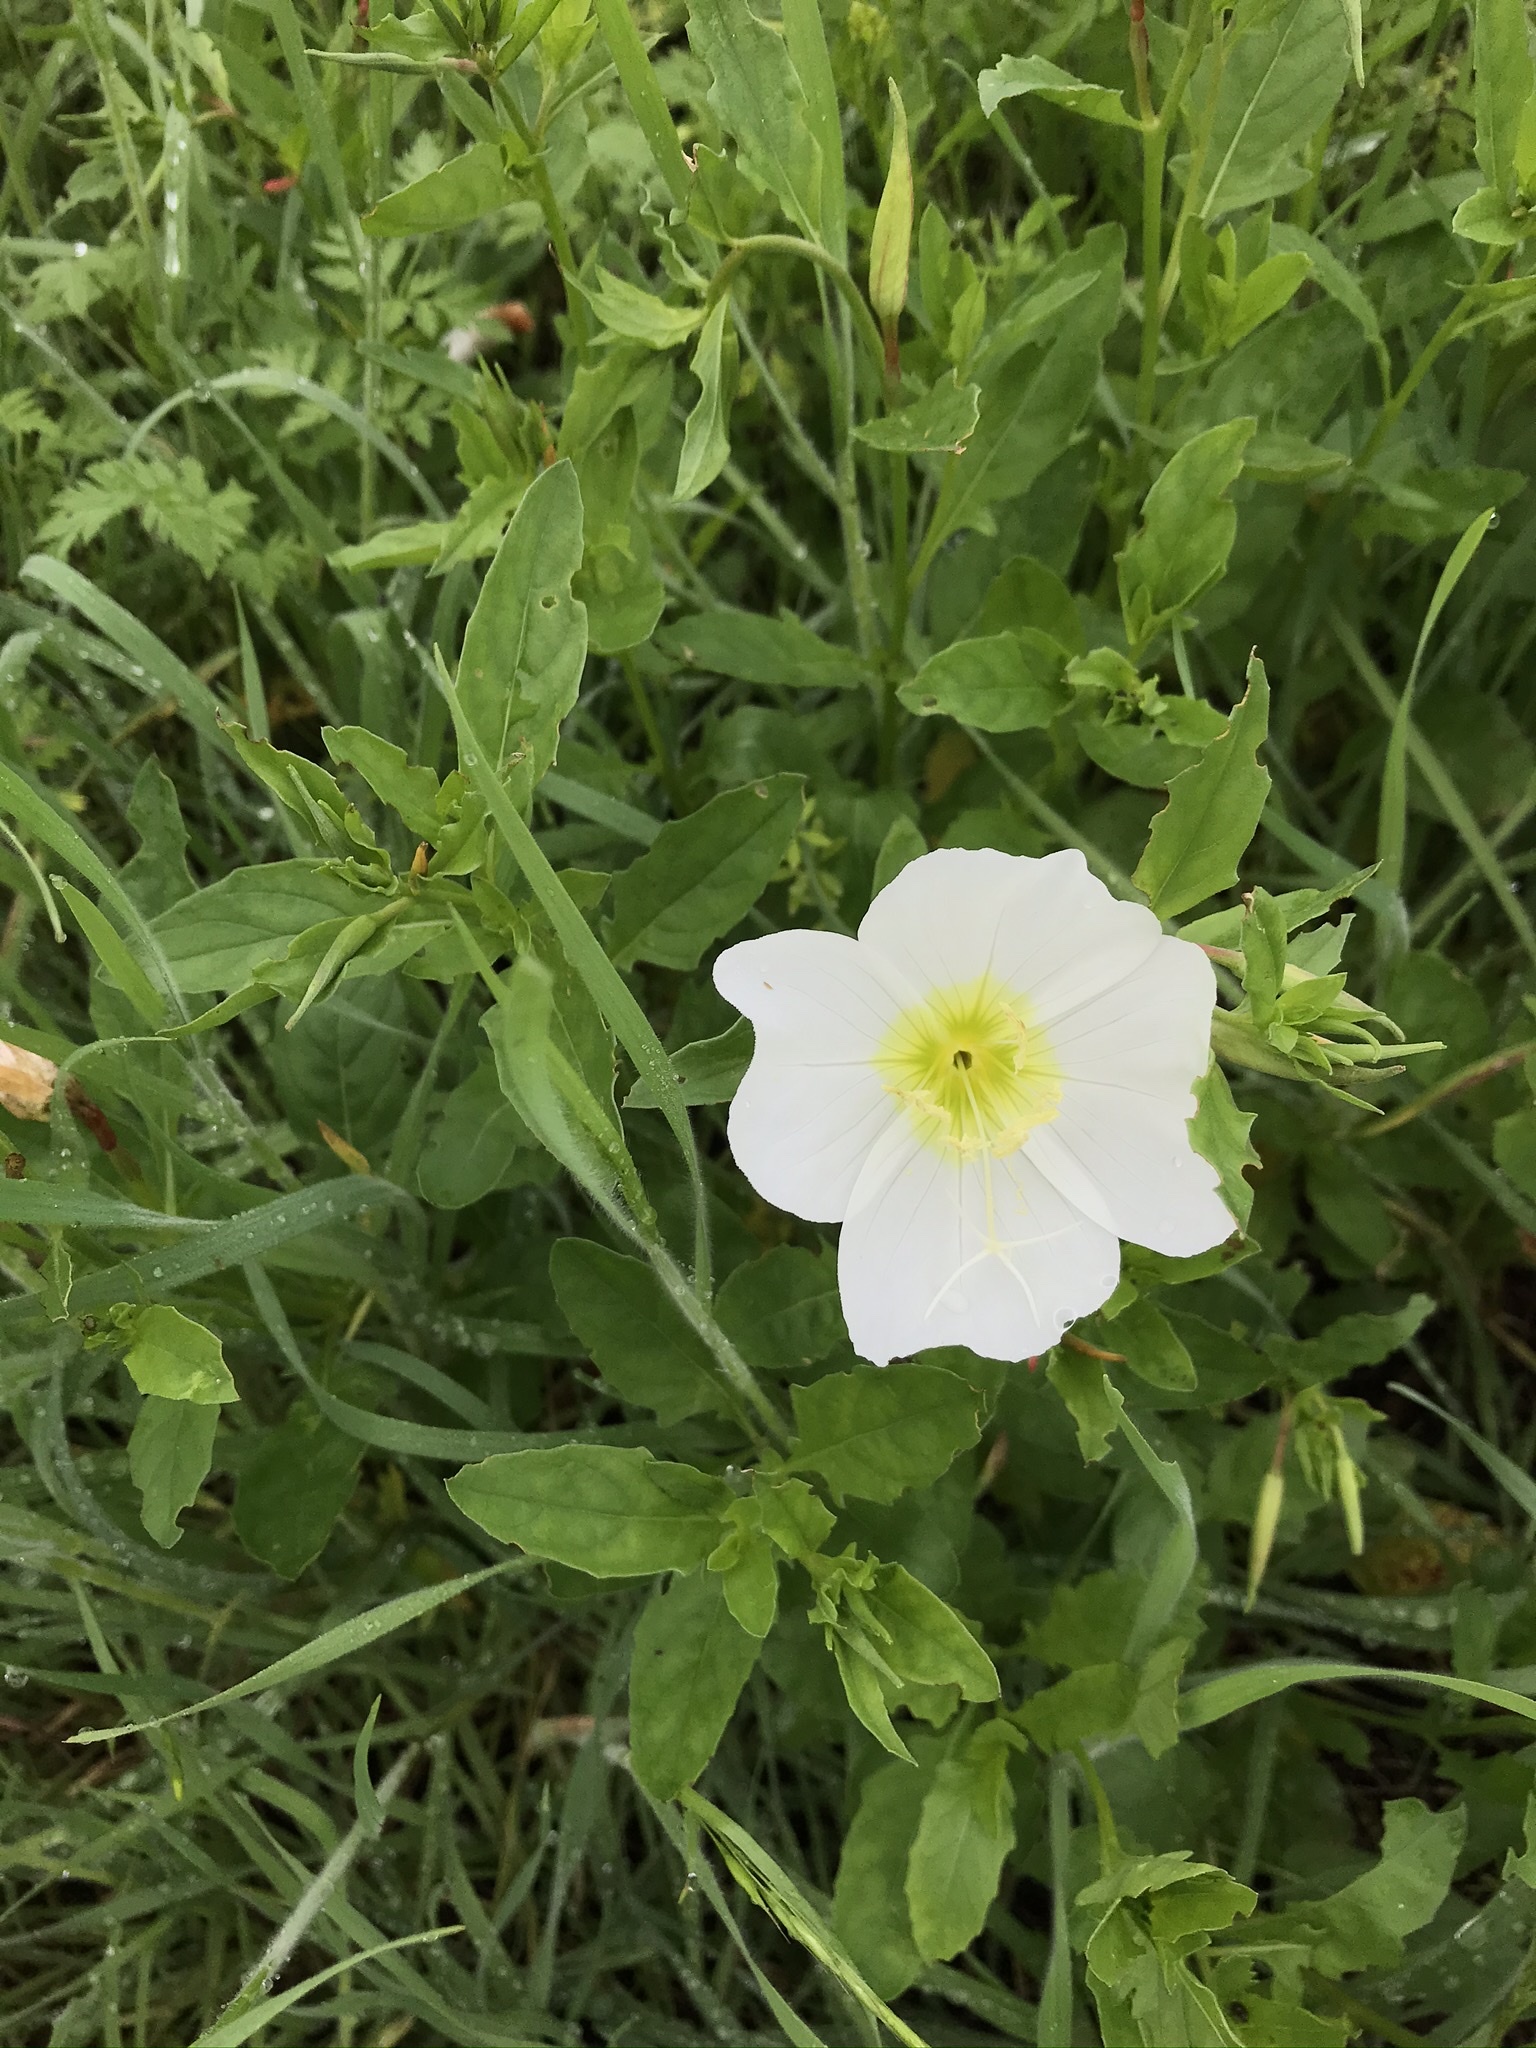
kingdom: Plantae
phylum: Tracheophyta
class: Magnoliopsida
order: Myrtales
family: Onagraceae
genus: Oenothera
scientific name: Oenothera speciosa
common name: White evening-primrose
